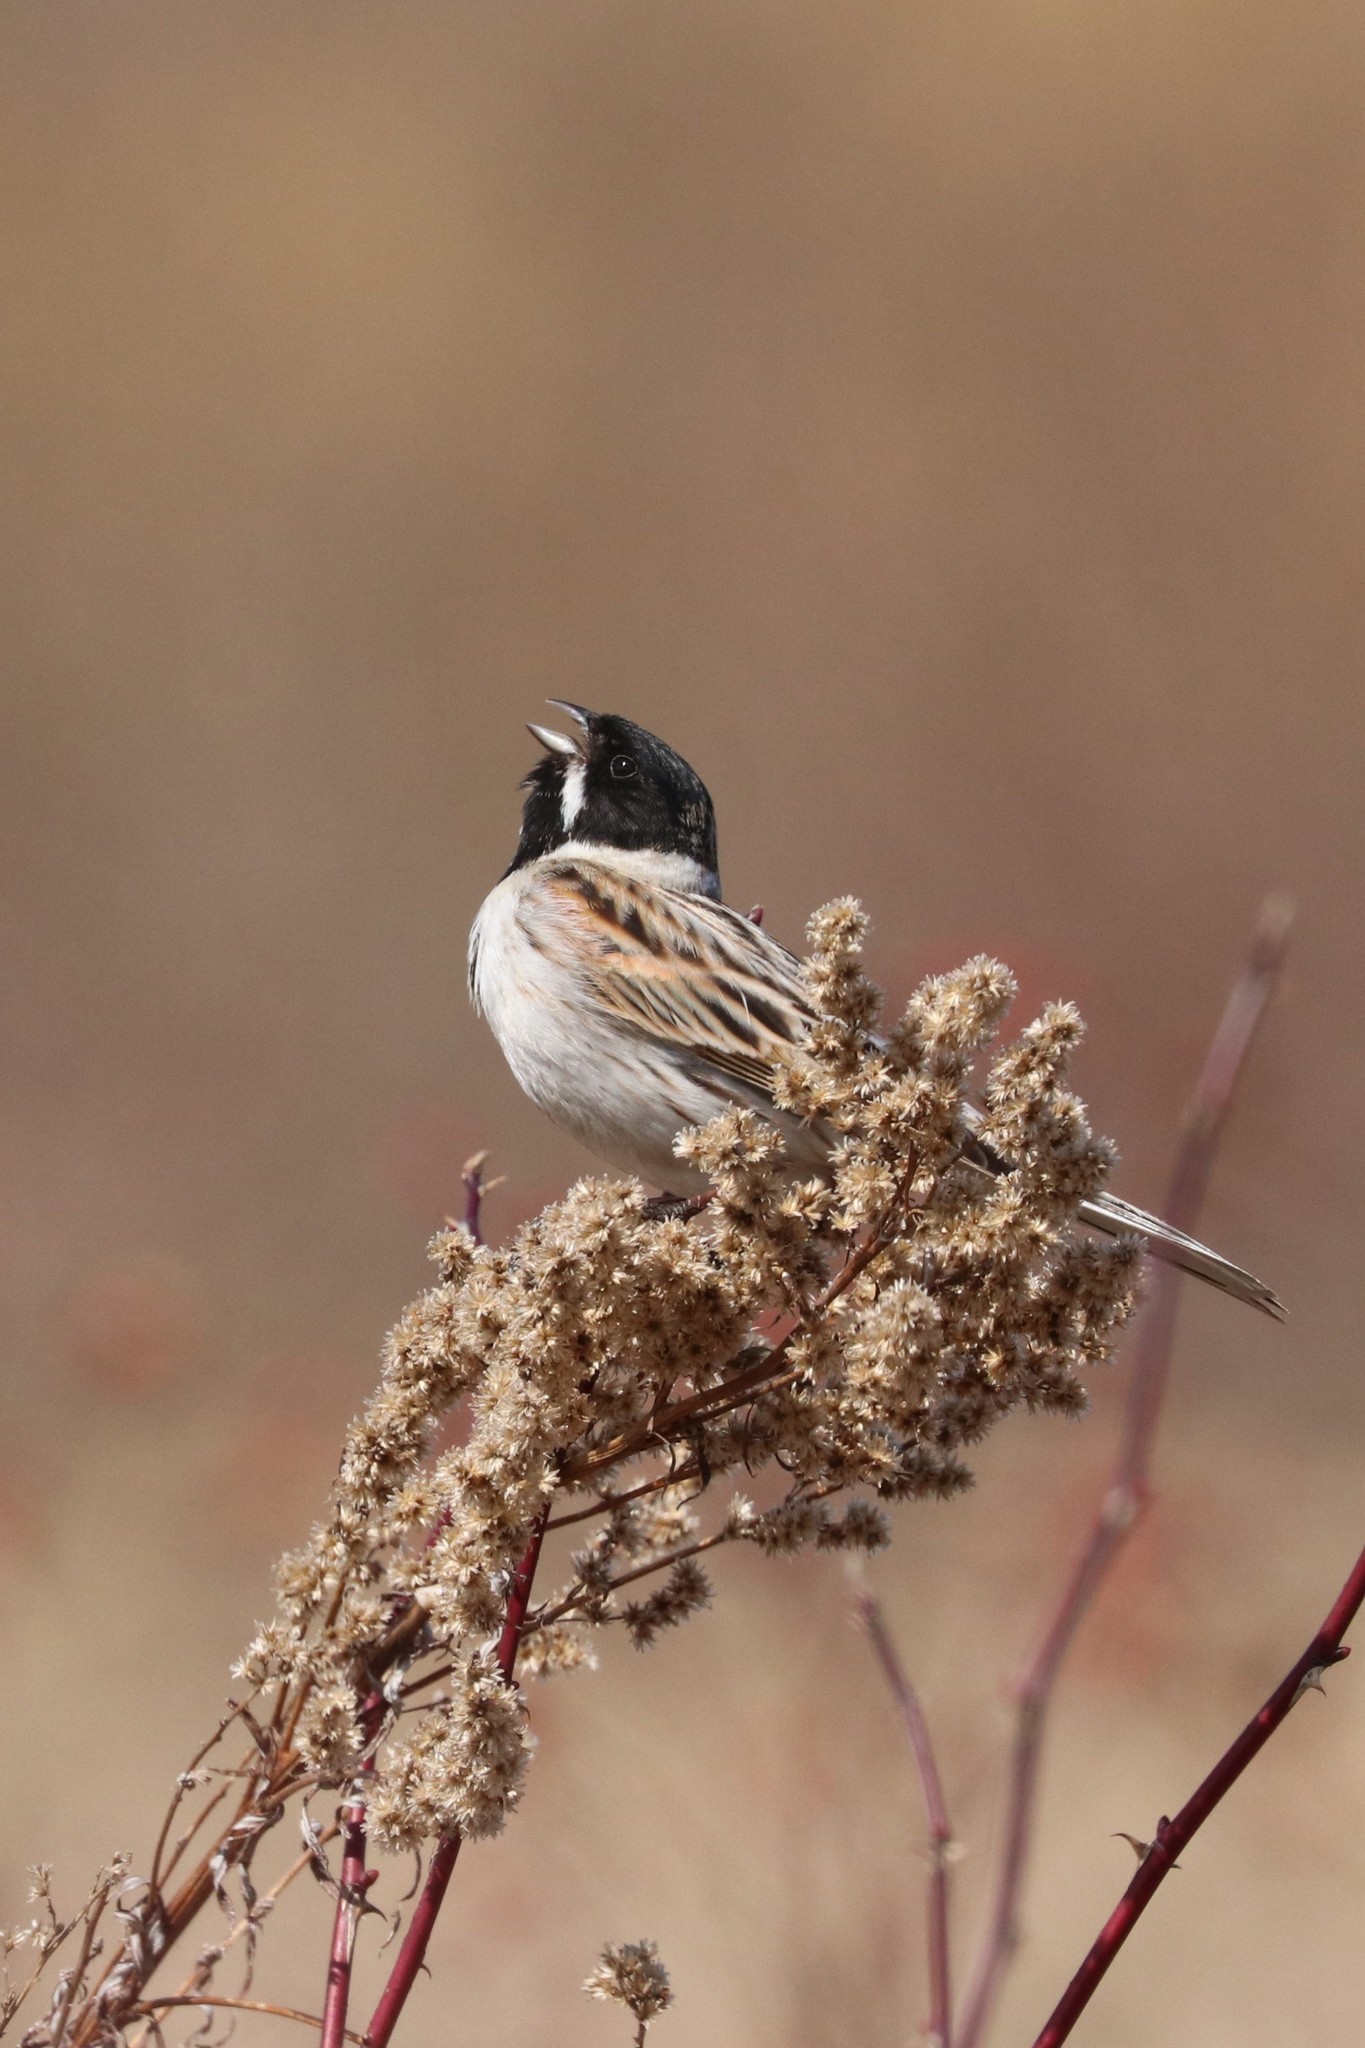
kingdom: Animalia
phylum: Chordata
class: Aves
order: Passeriformes
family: Emberizidae
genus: Emberiza
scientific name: Emberiza schoeniclus
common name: Reed bunting
